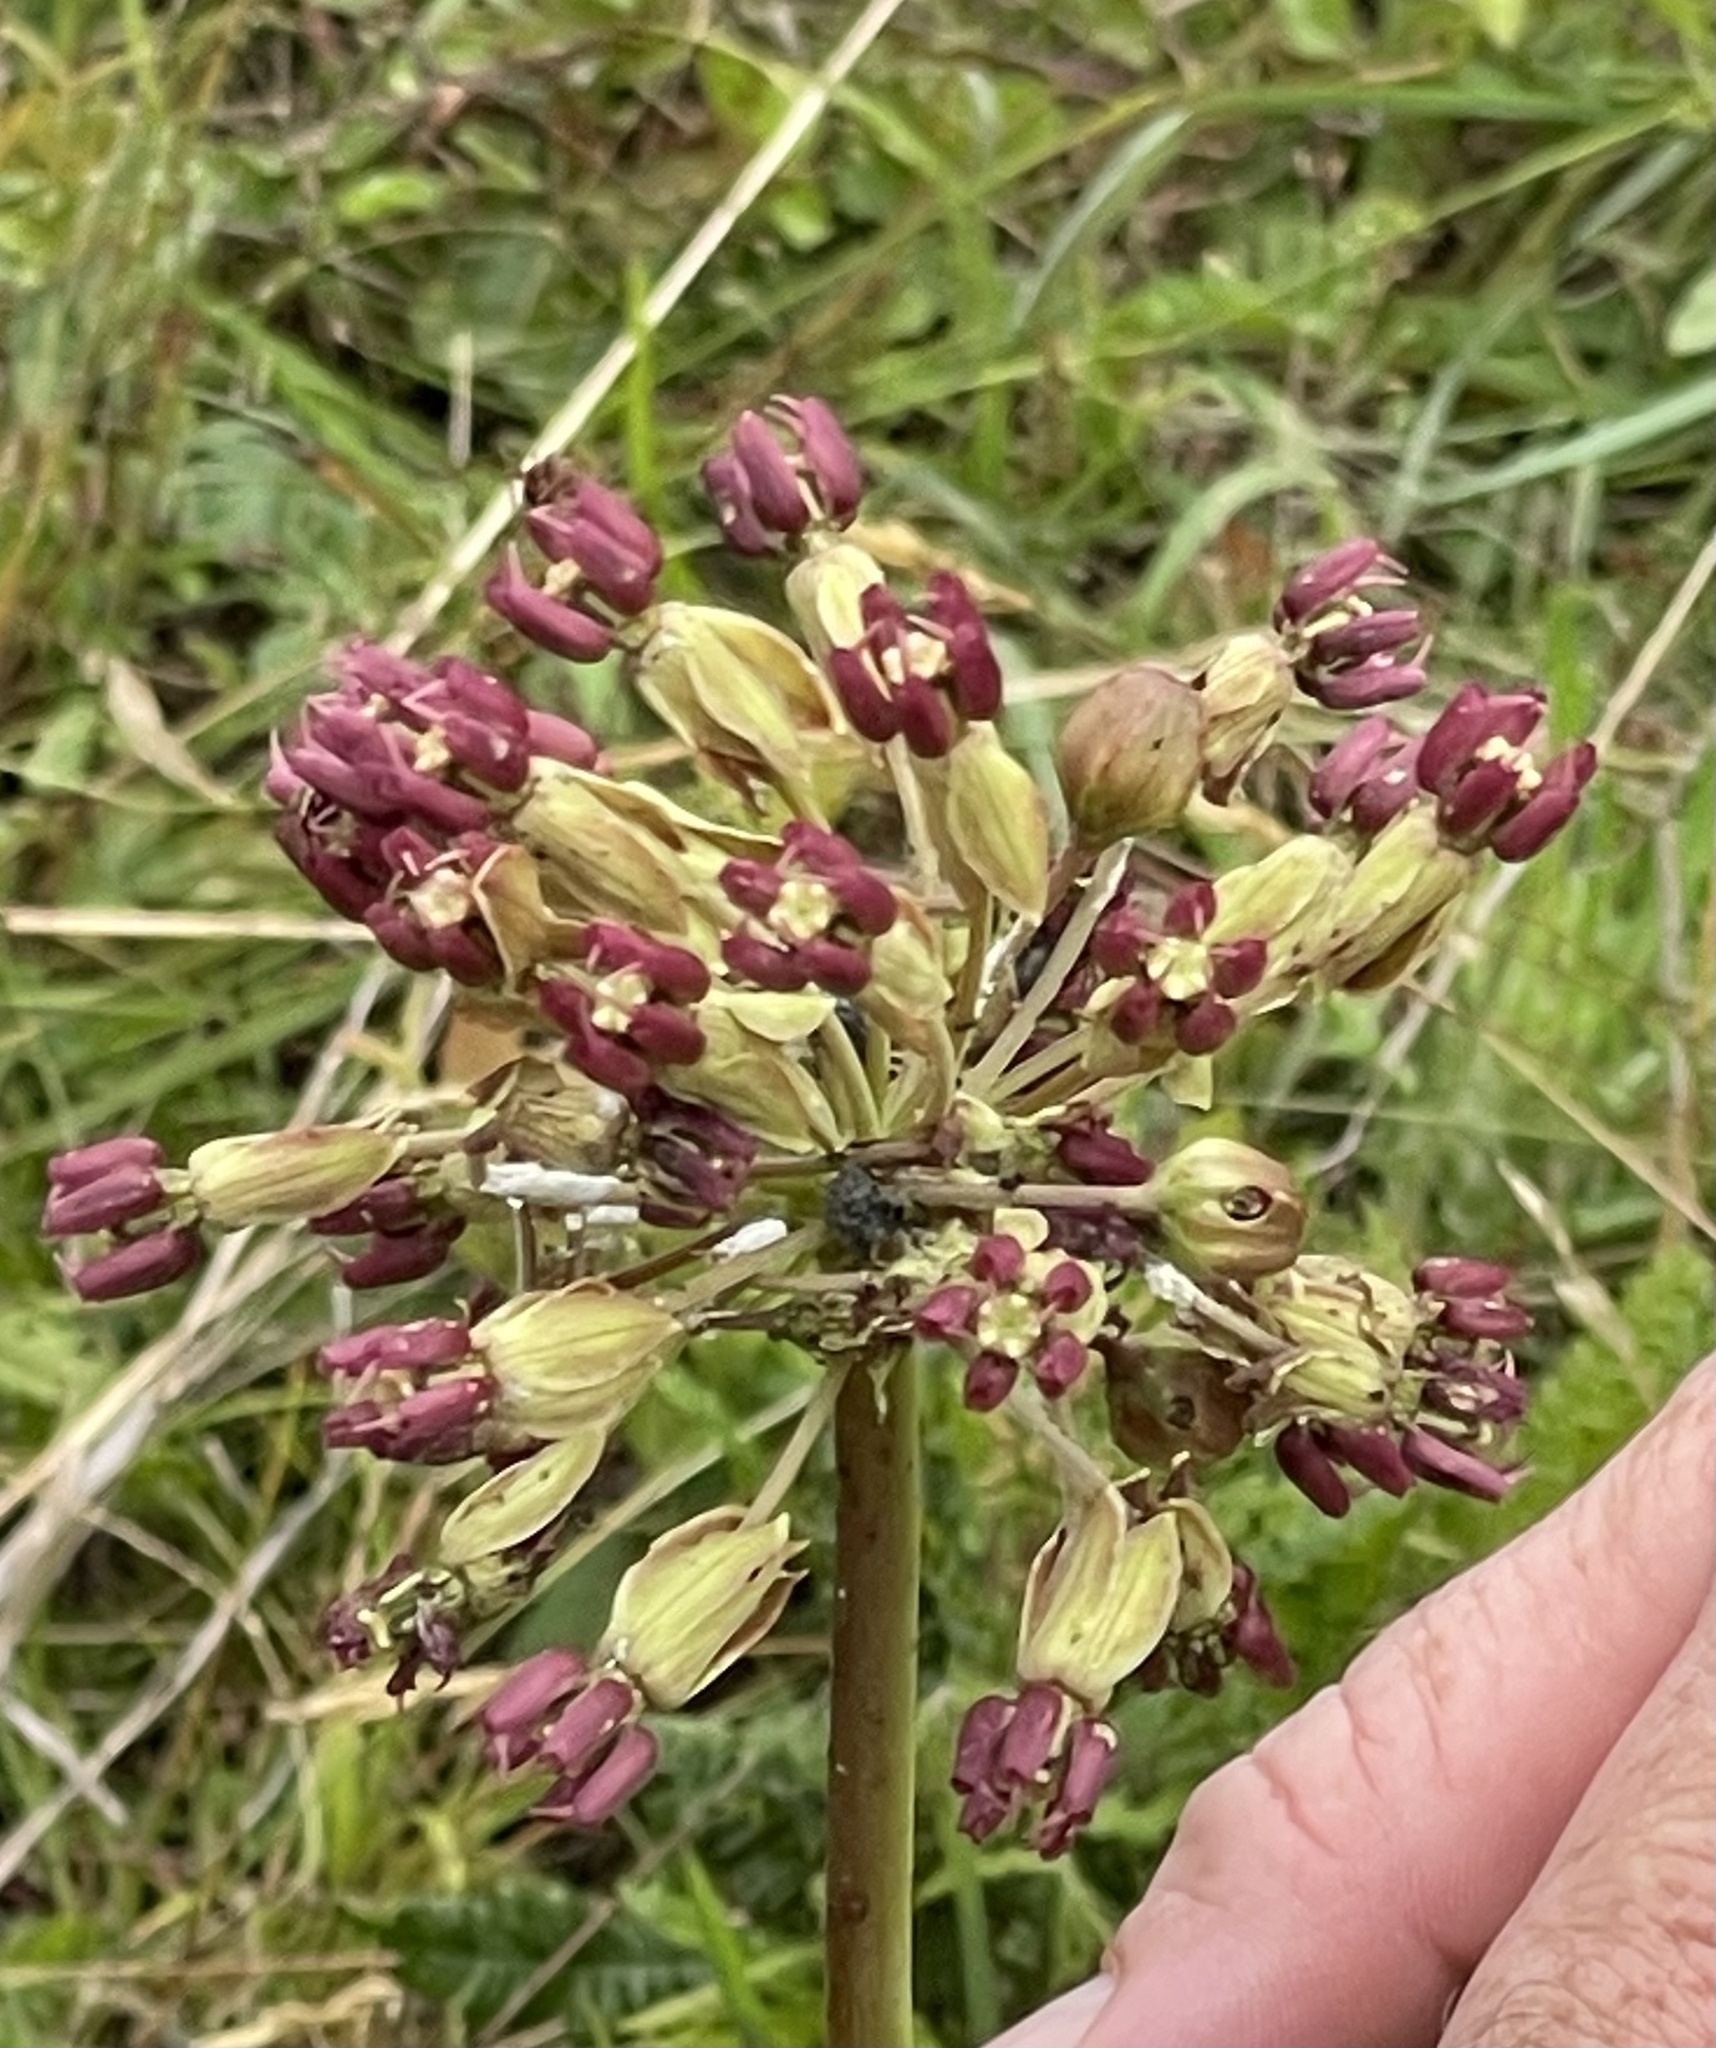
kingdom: Plantae
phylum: Tracheophyta
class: Magnoliopsida
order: Gentianales
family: Apocynaceae
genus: Asclepias
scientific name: Asclepias amplexicaulis
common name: Blunt-leaf milkweed
